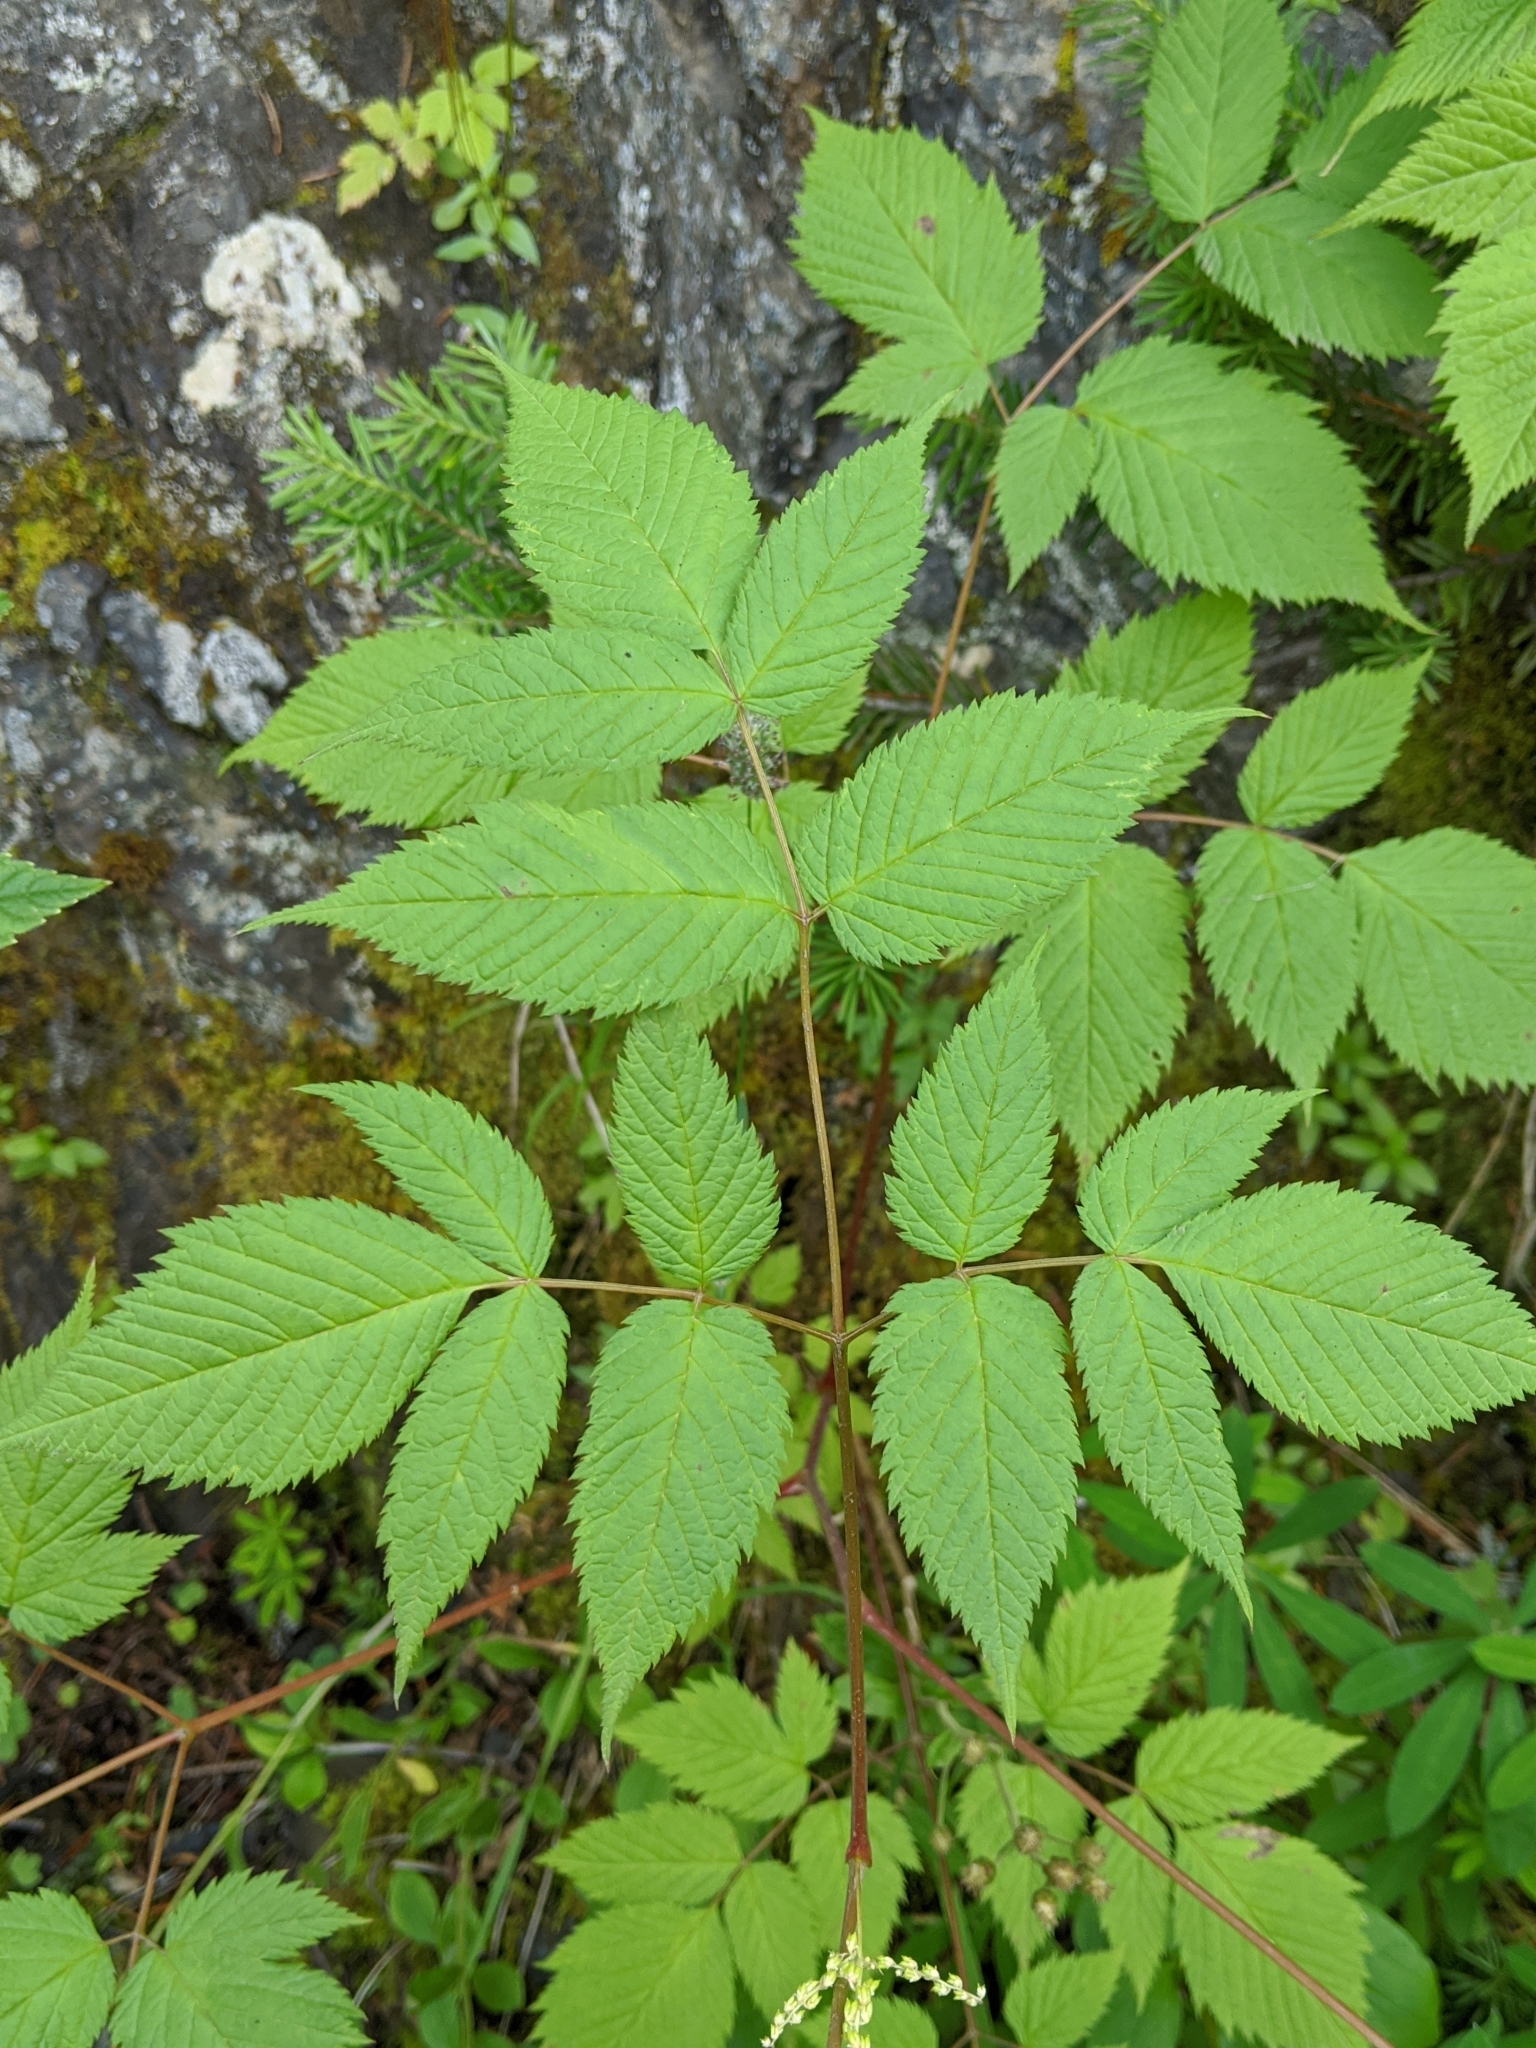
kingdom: Plantae
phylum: Tracheophyta
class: Magnoliopsida
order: Rosales
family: Rosaceae
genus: Aruncus
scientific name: Aruncus dioicus
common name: Buck's-beard
